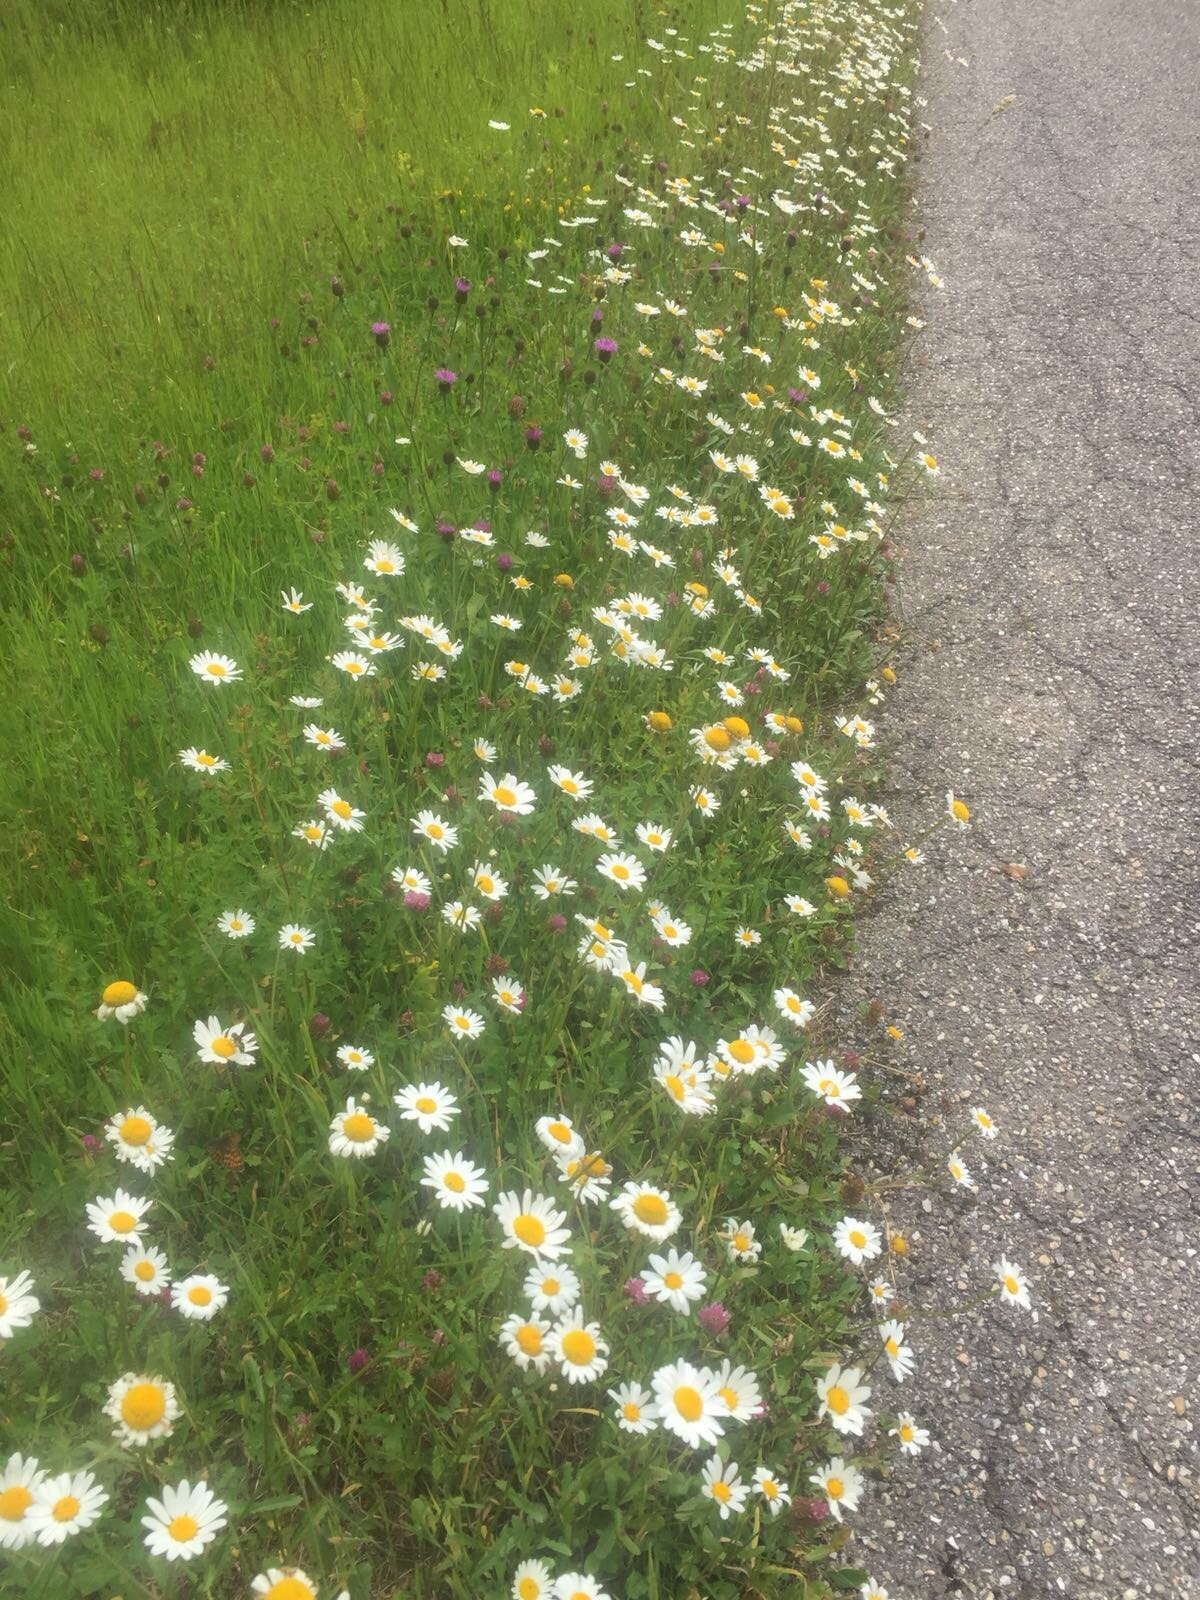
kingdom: Plantae
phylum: Tracheophyta
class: Magnoliopsida
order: Asterales
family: Asteraceae
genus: Leucanthemum
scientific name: Leucanthemum vulgare
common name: Oxeye daisy
